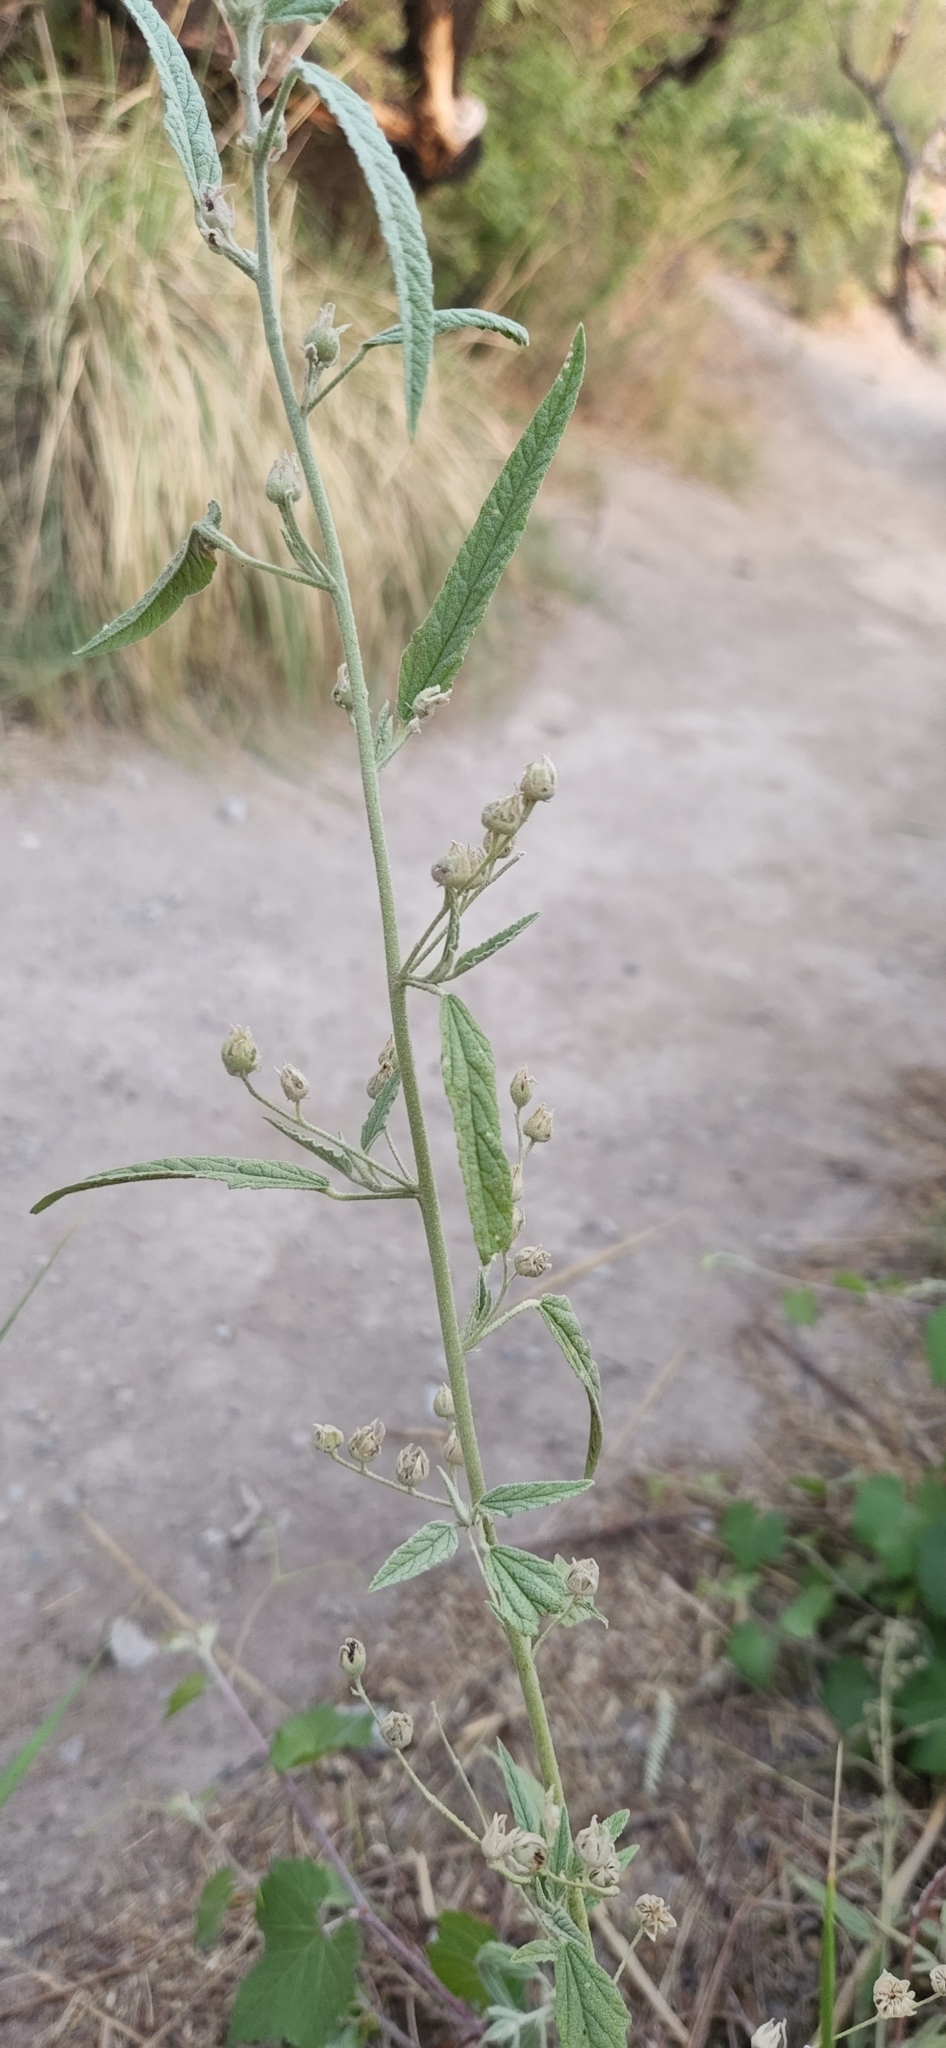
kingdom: Plantae
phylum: Tracheophyta
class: Magnoliopsida
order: Malvales
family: Malvaceae
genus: Sphaeralcea
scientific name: Sphaeralcea angustifolia
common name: Copper globe-mallow
